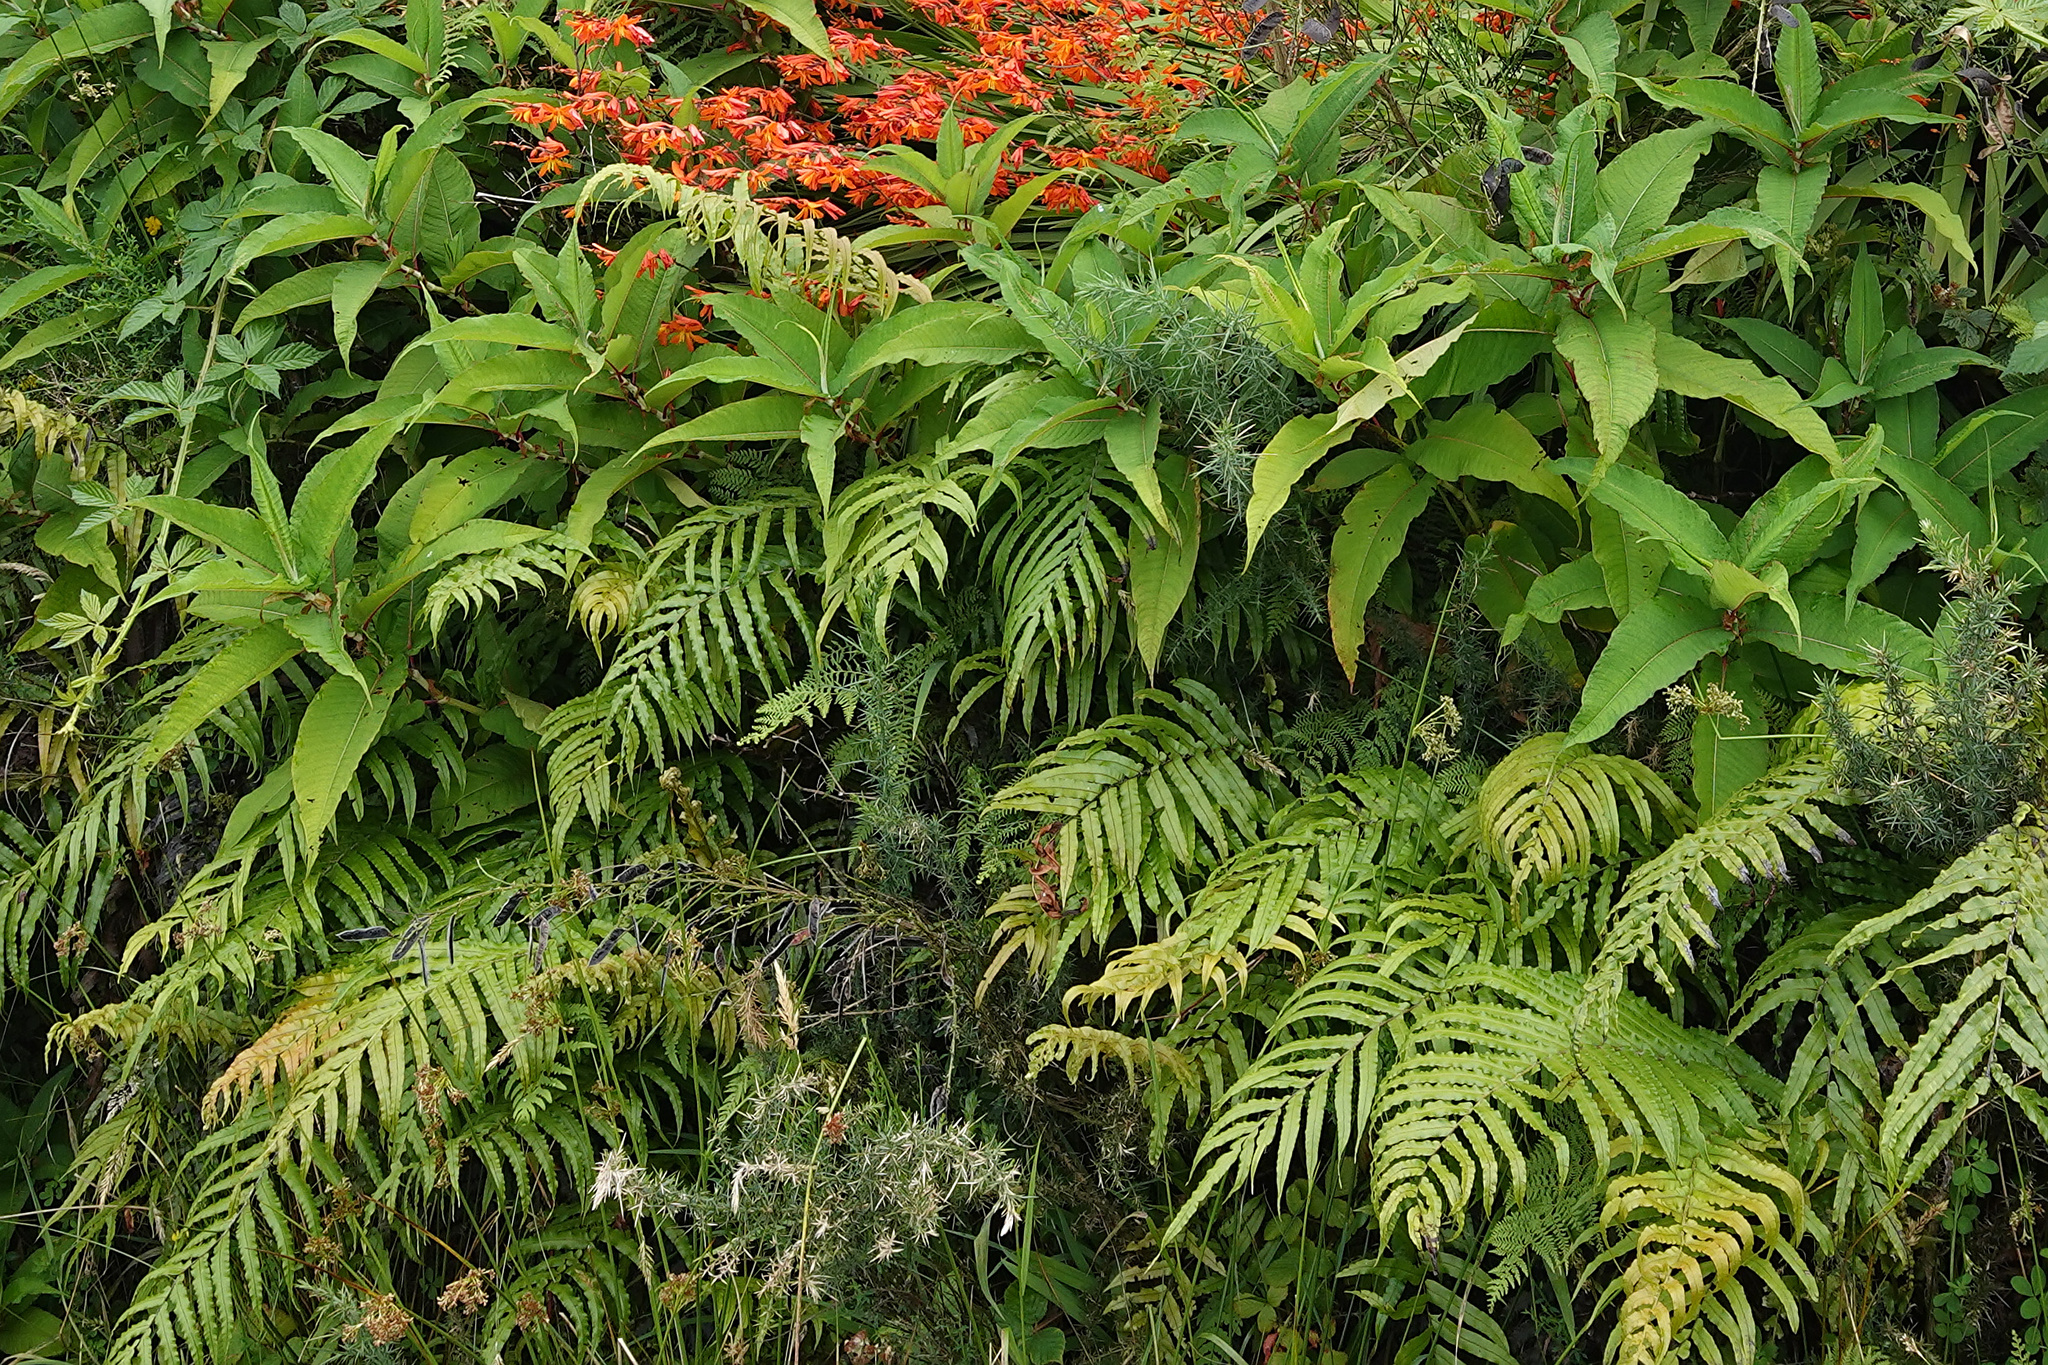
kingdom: Plantae
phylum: Tracheophyta
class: Magnoliopsida
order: Caryophyllales
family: Polygonaceae
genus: Reynoutria
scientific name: Reynoutria japonica
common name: Japanese knotweed
